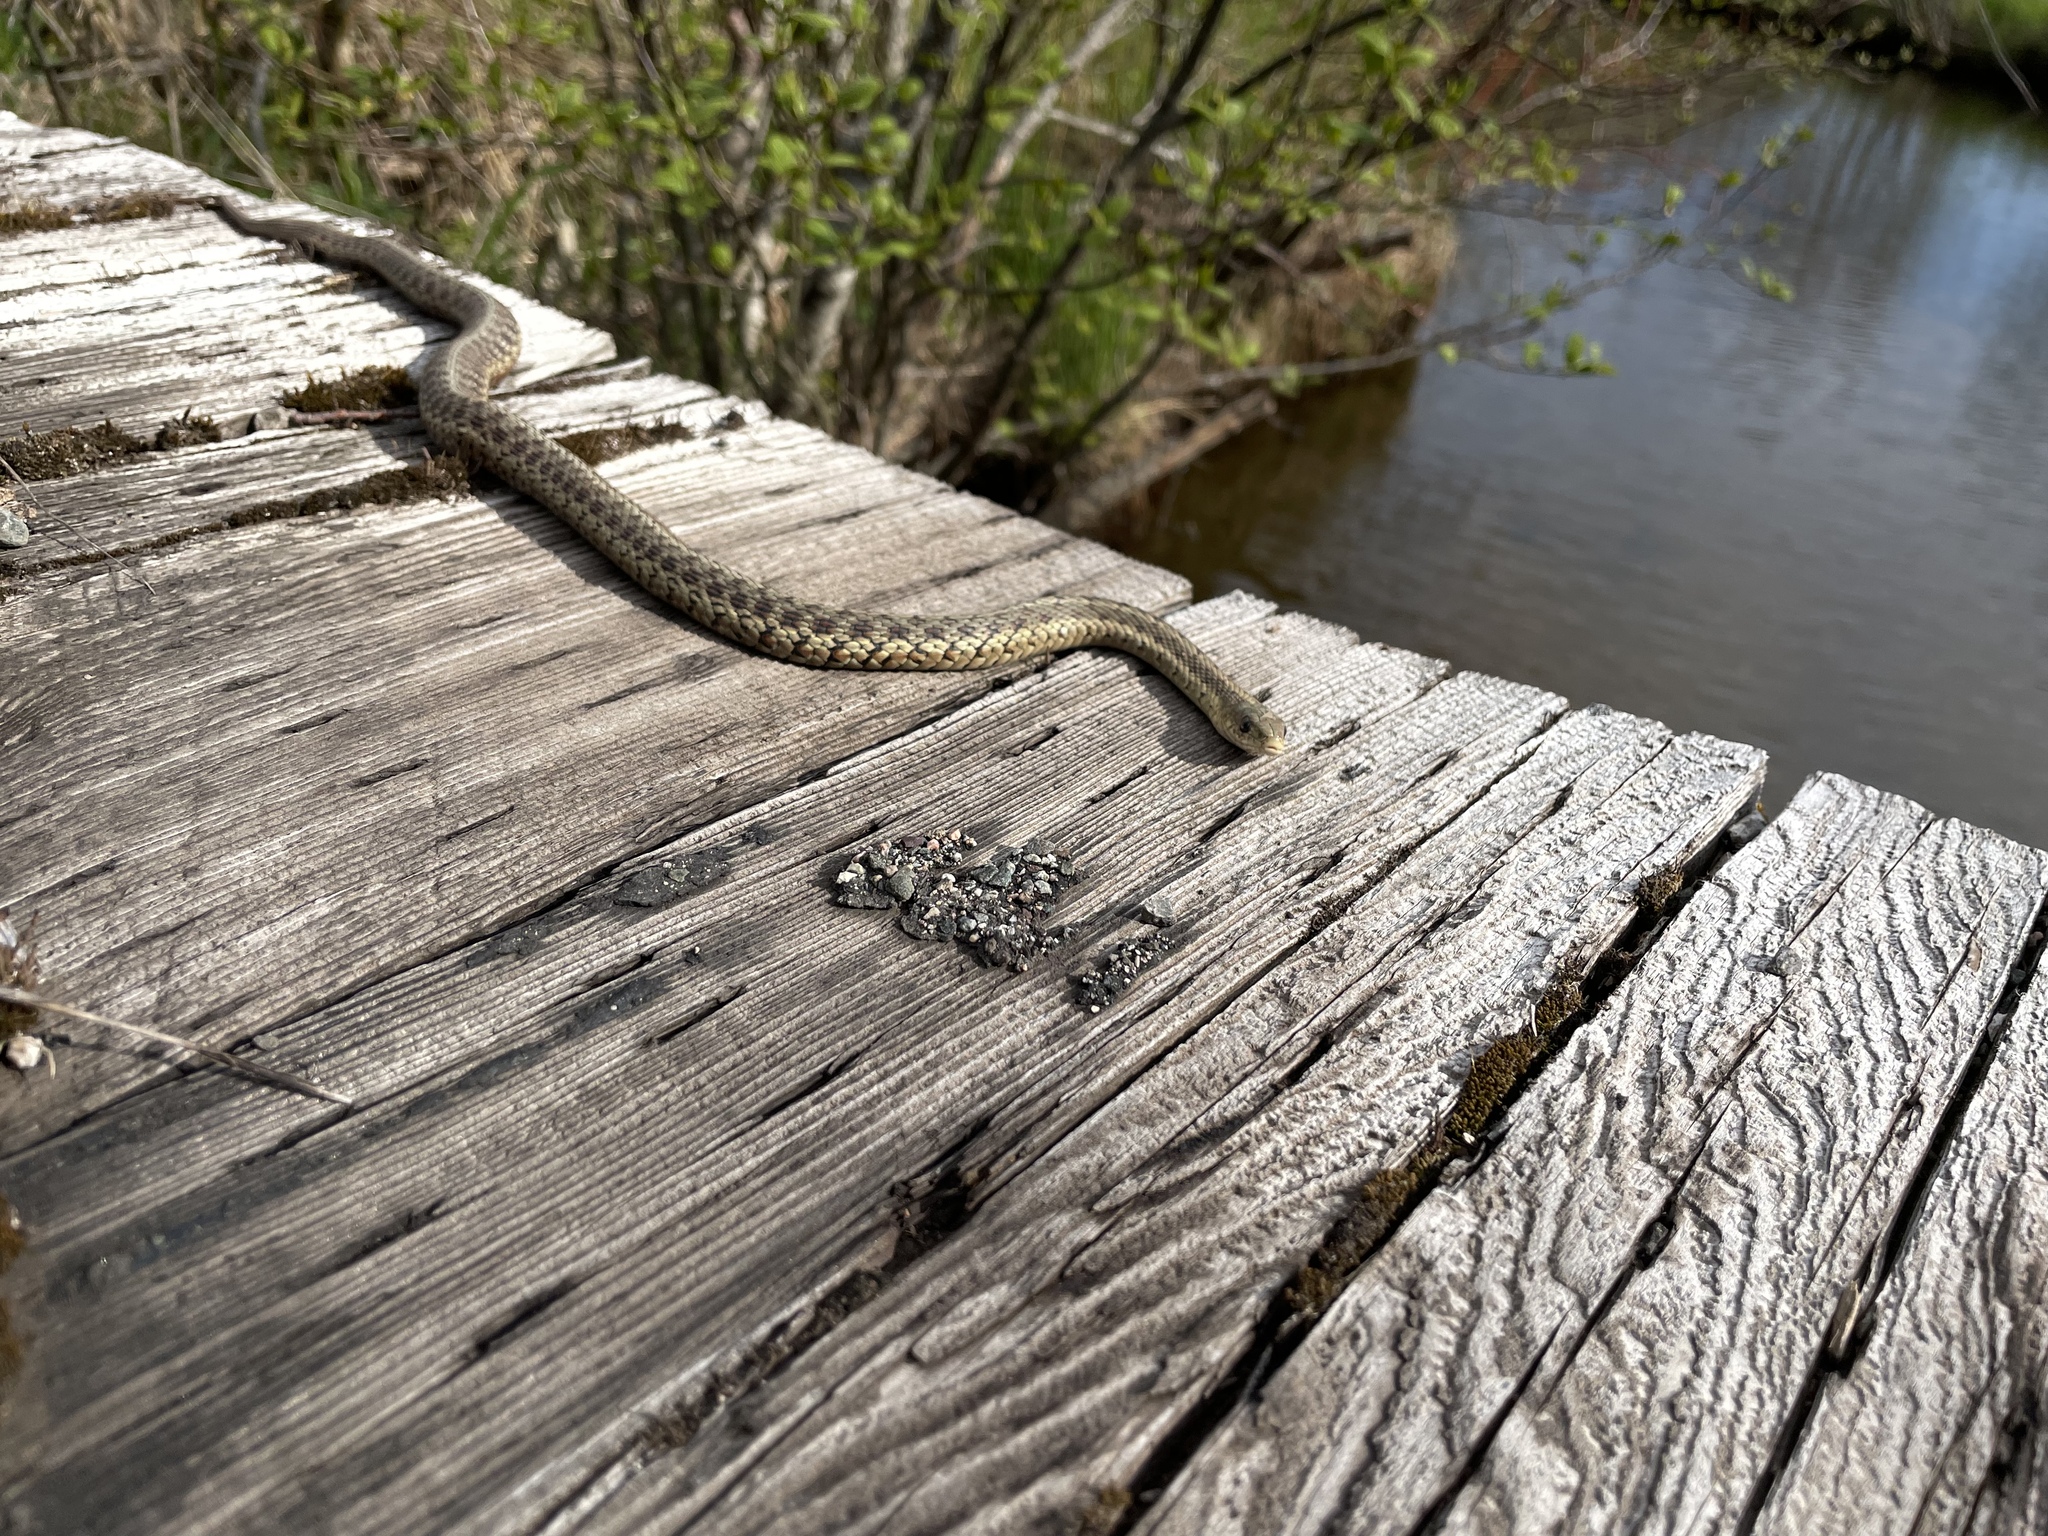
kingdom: Animalia
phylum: Chordata
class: Squamata
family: Colubridae
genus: Thamnophis
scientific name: Thamnophis sirtalis
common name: Common garter snake
